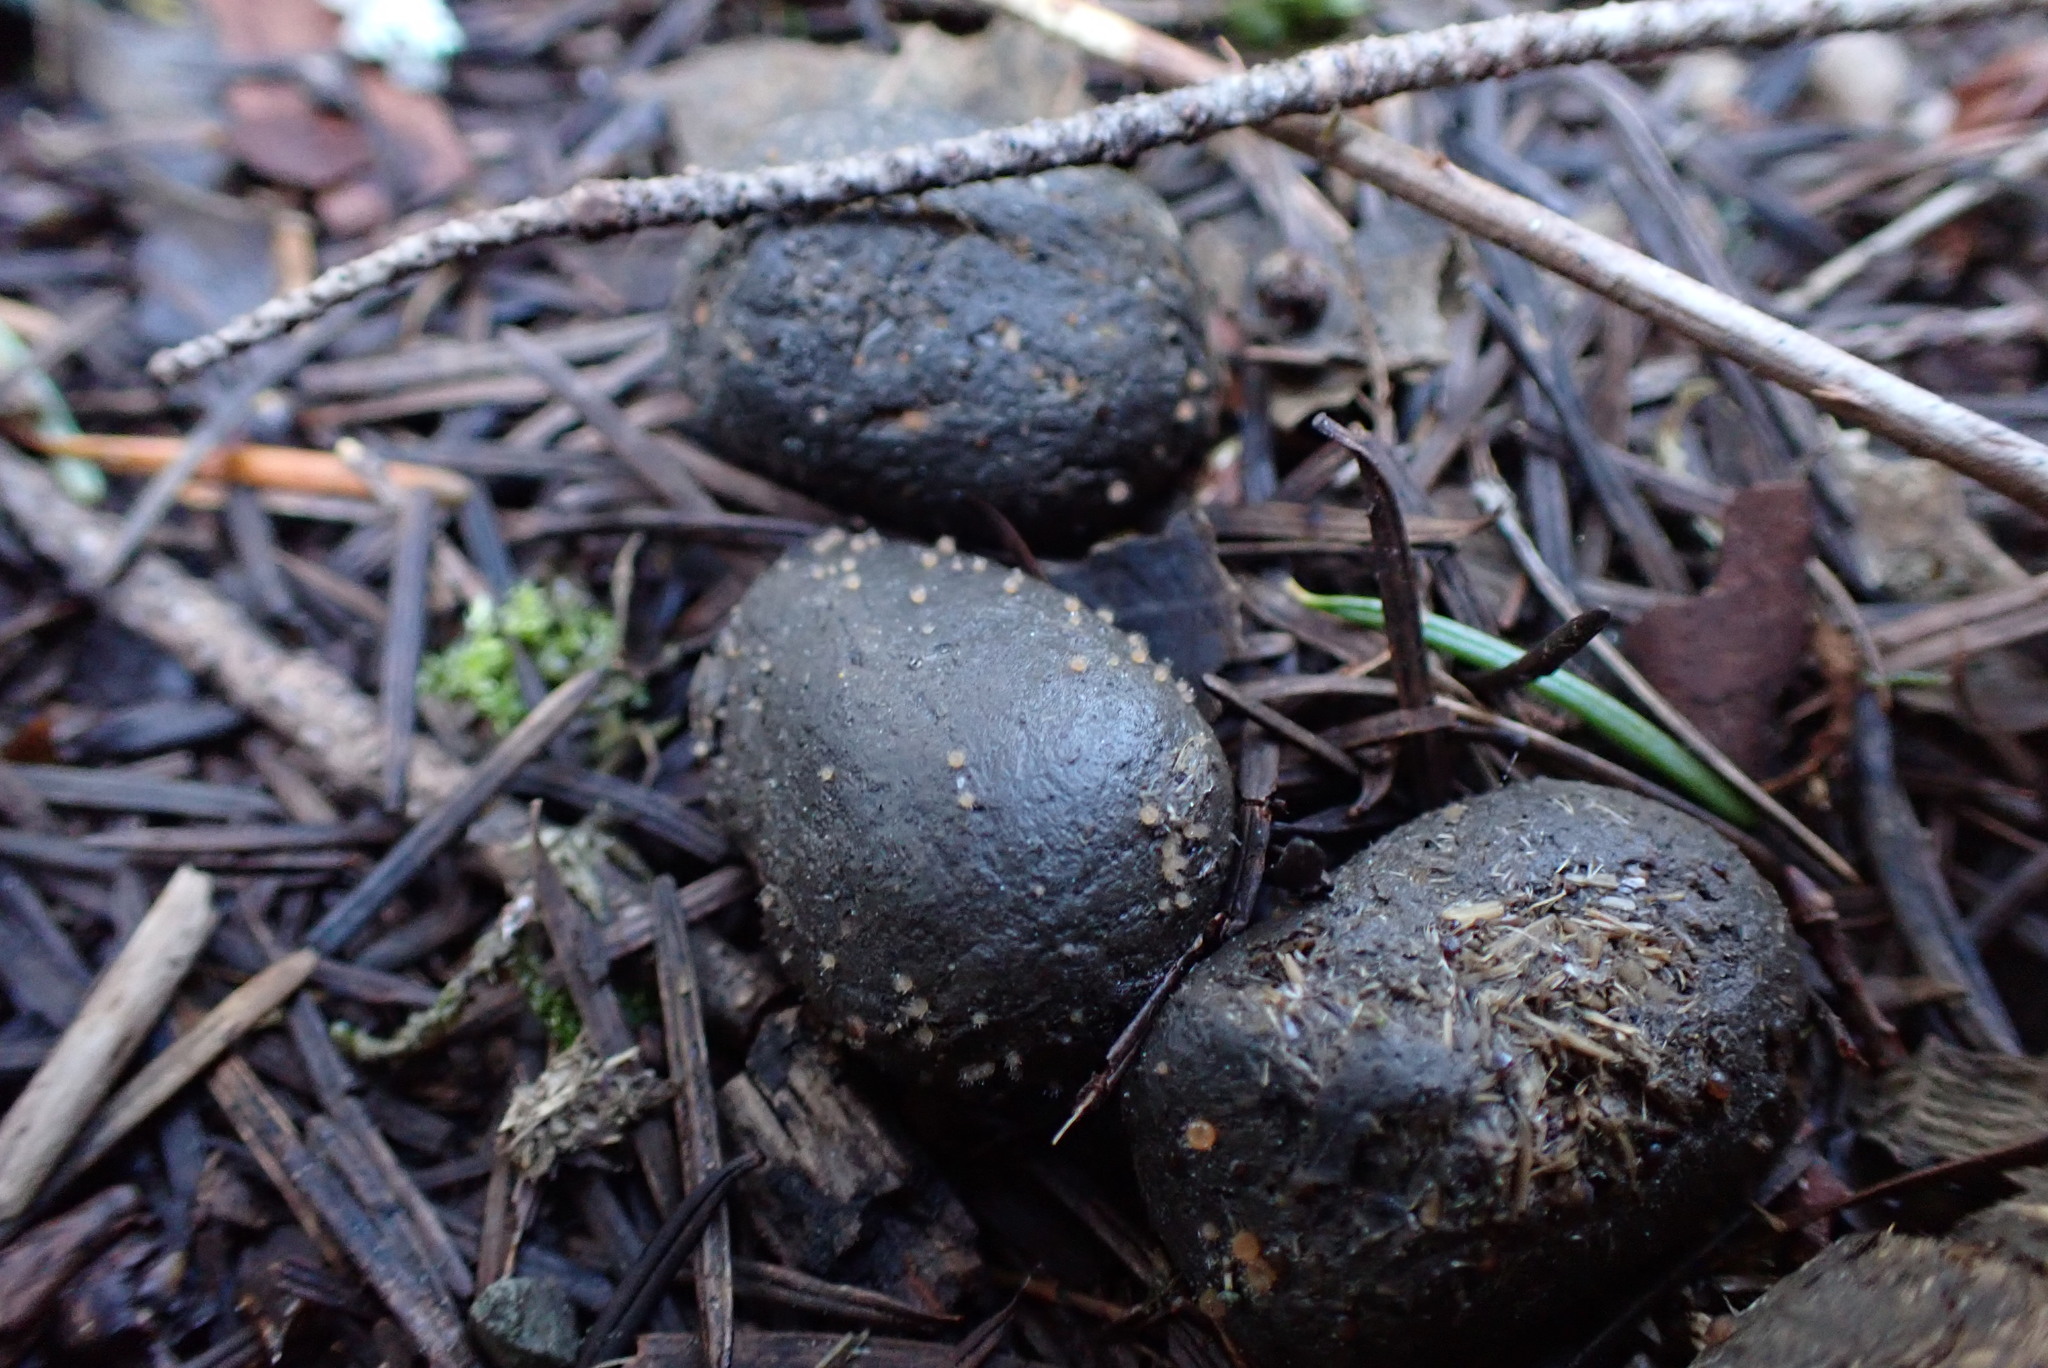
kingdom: Animalia
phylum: Chordata
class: Mammalia
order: Artiodactyla
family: Cervidae
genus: Cervus
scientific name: Cervus elaphus
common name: Red deer
